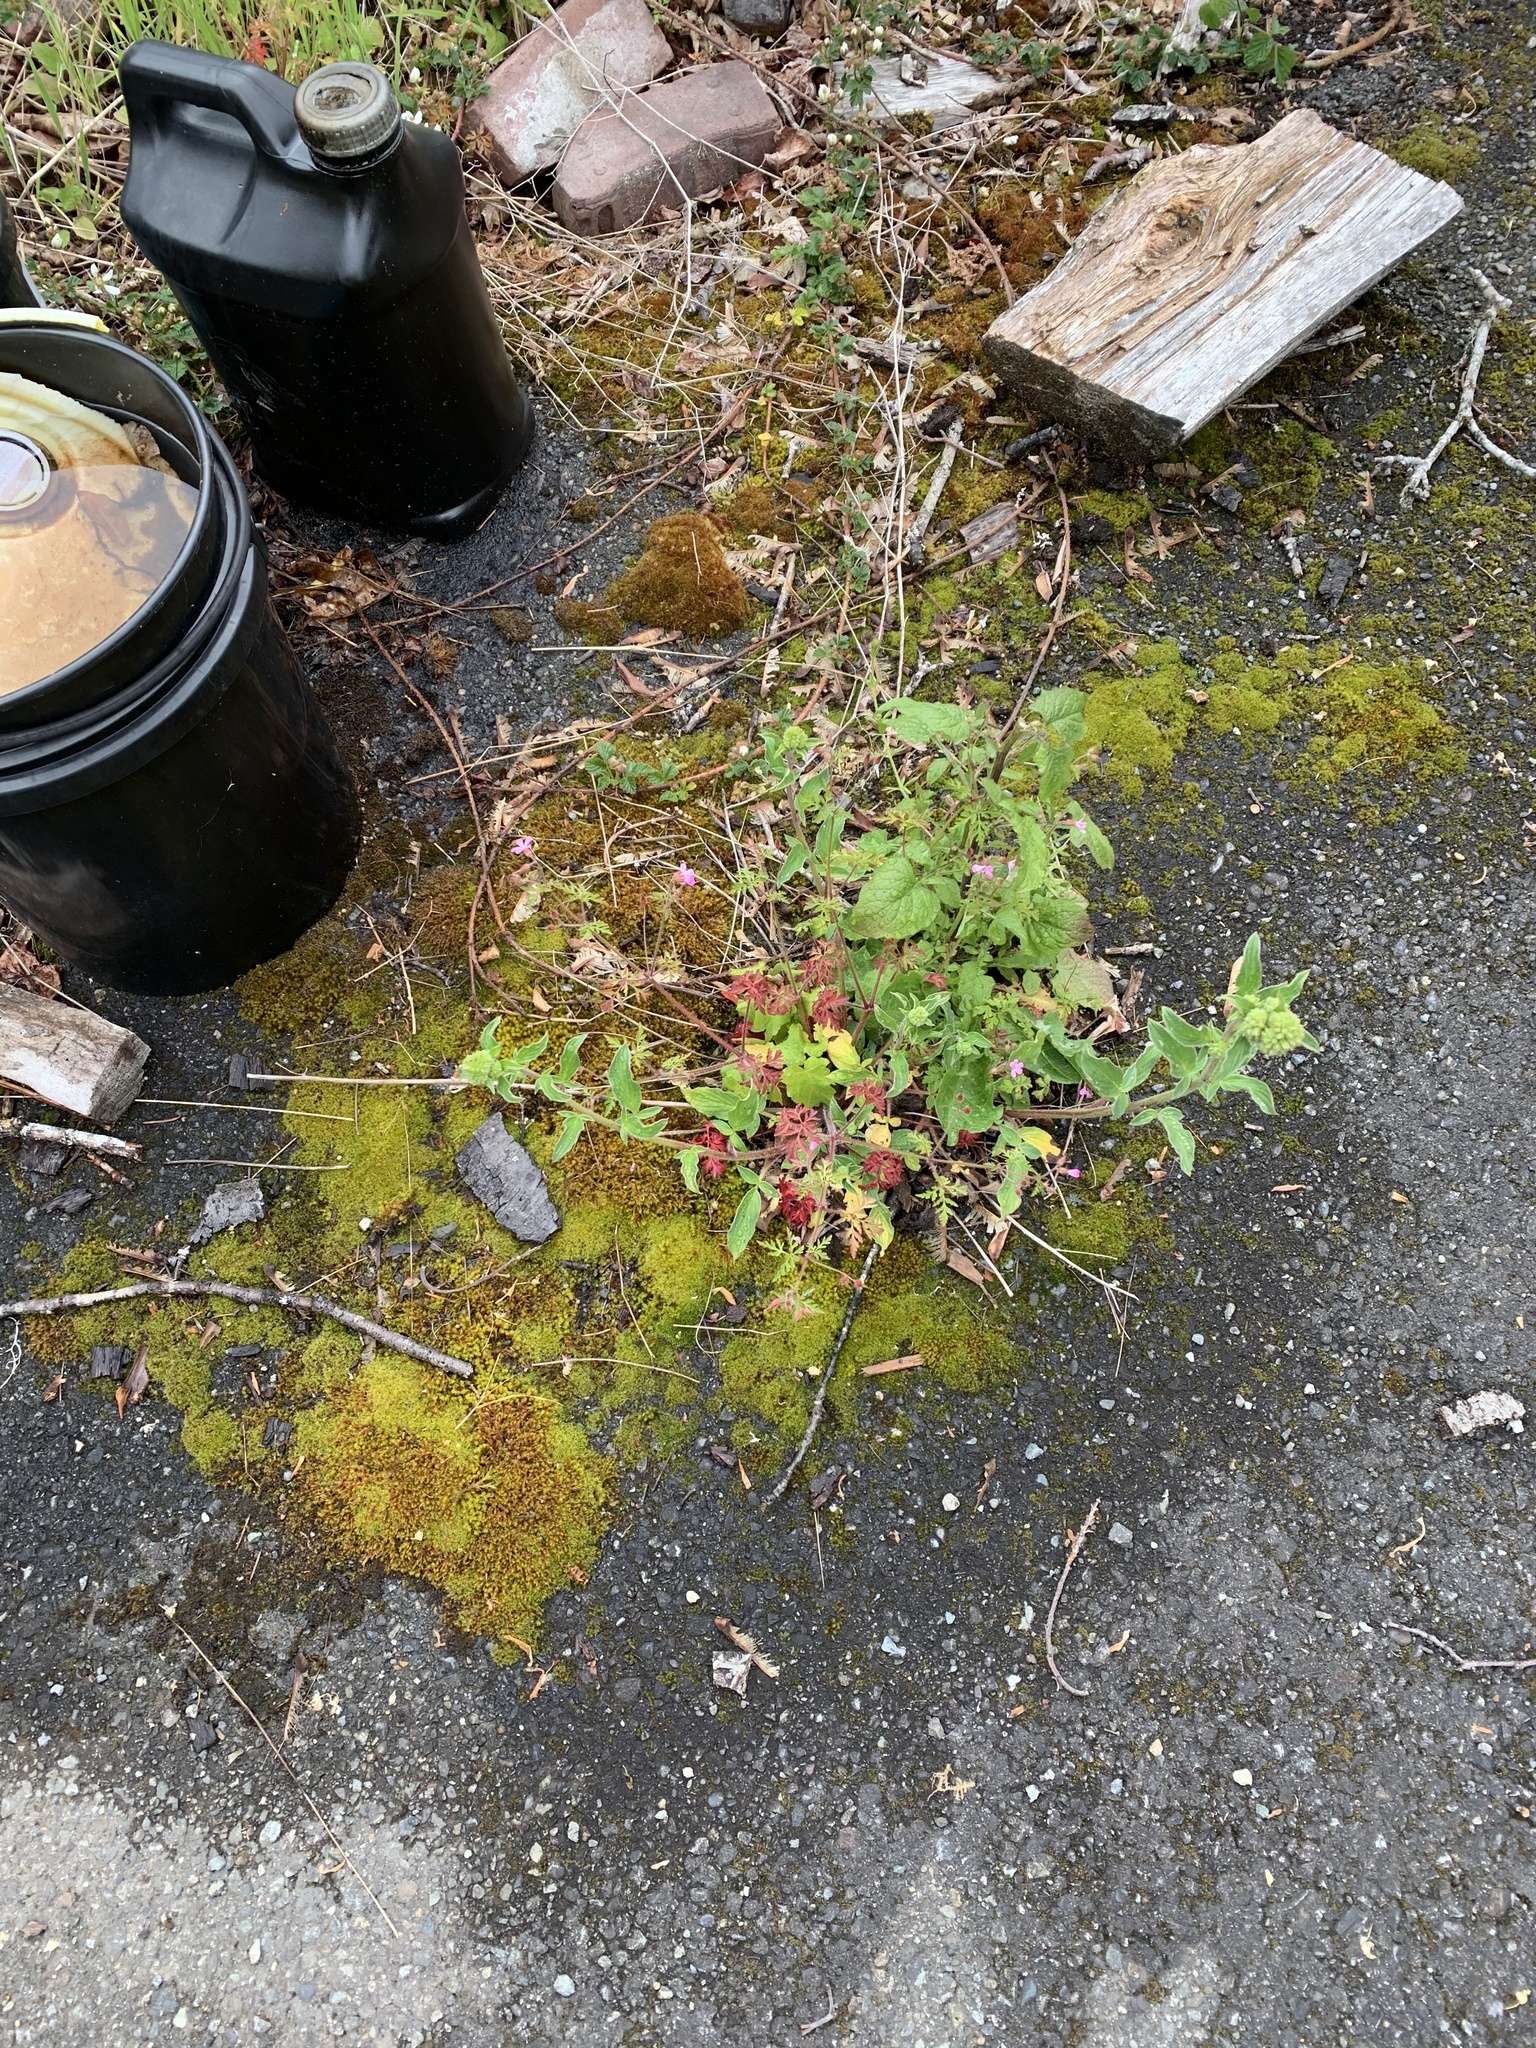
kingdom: Plantae
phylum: Tracheophyta
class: Magnoliopsida
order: Boraginales
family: Hydrophyllaceae
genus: Phacelia
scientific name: Phacelia nemoralis
